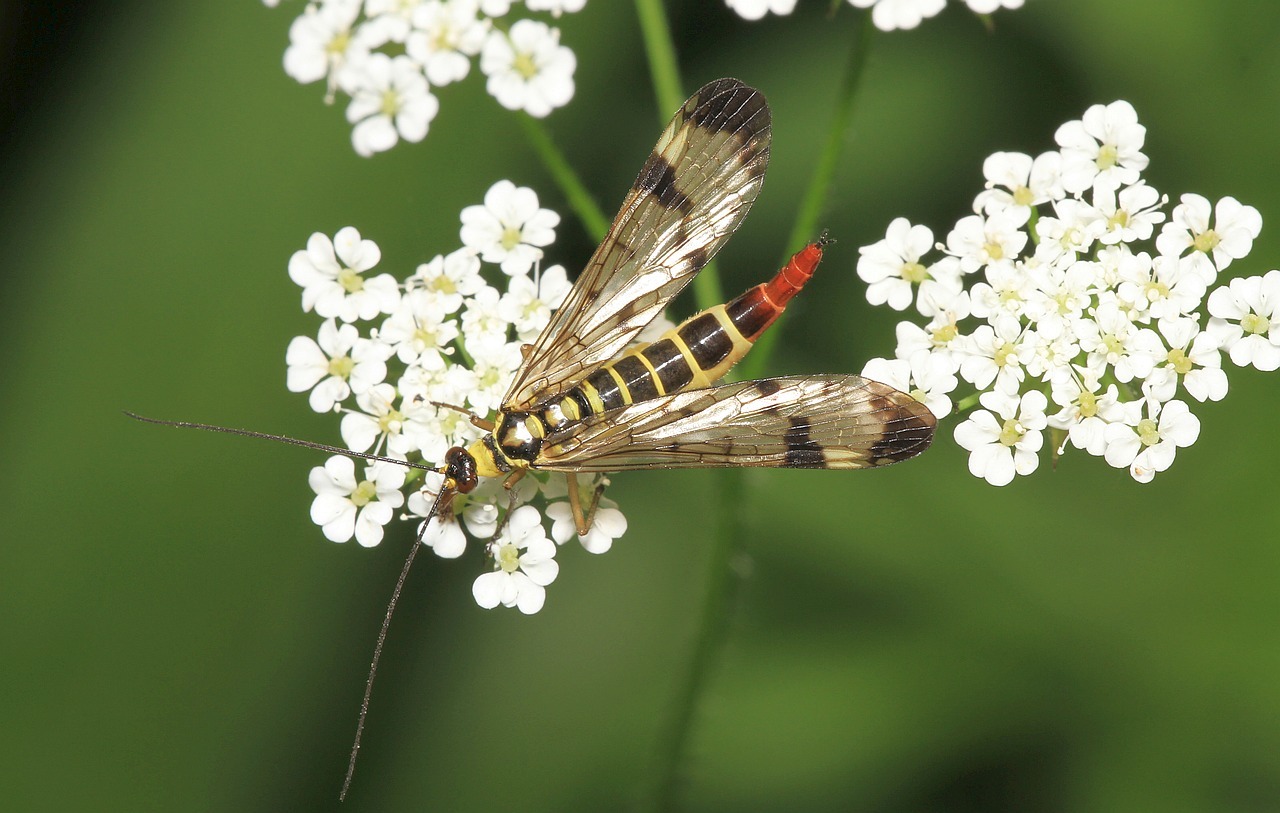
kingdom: Animalia
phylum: Arthropoda
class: Insecta
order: Mecoptera
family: Panorpidae
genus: Panorpa
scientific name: Panorpa communis
